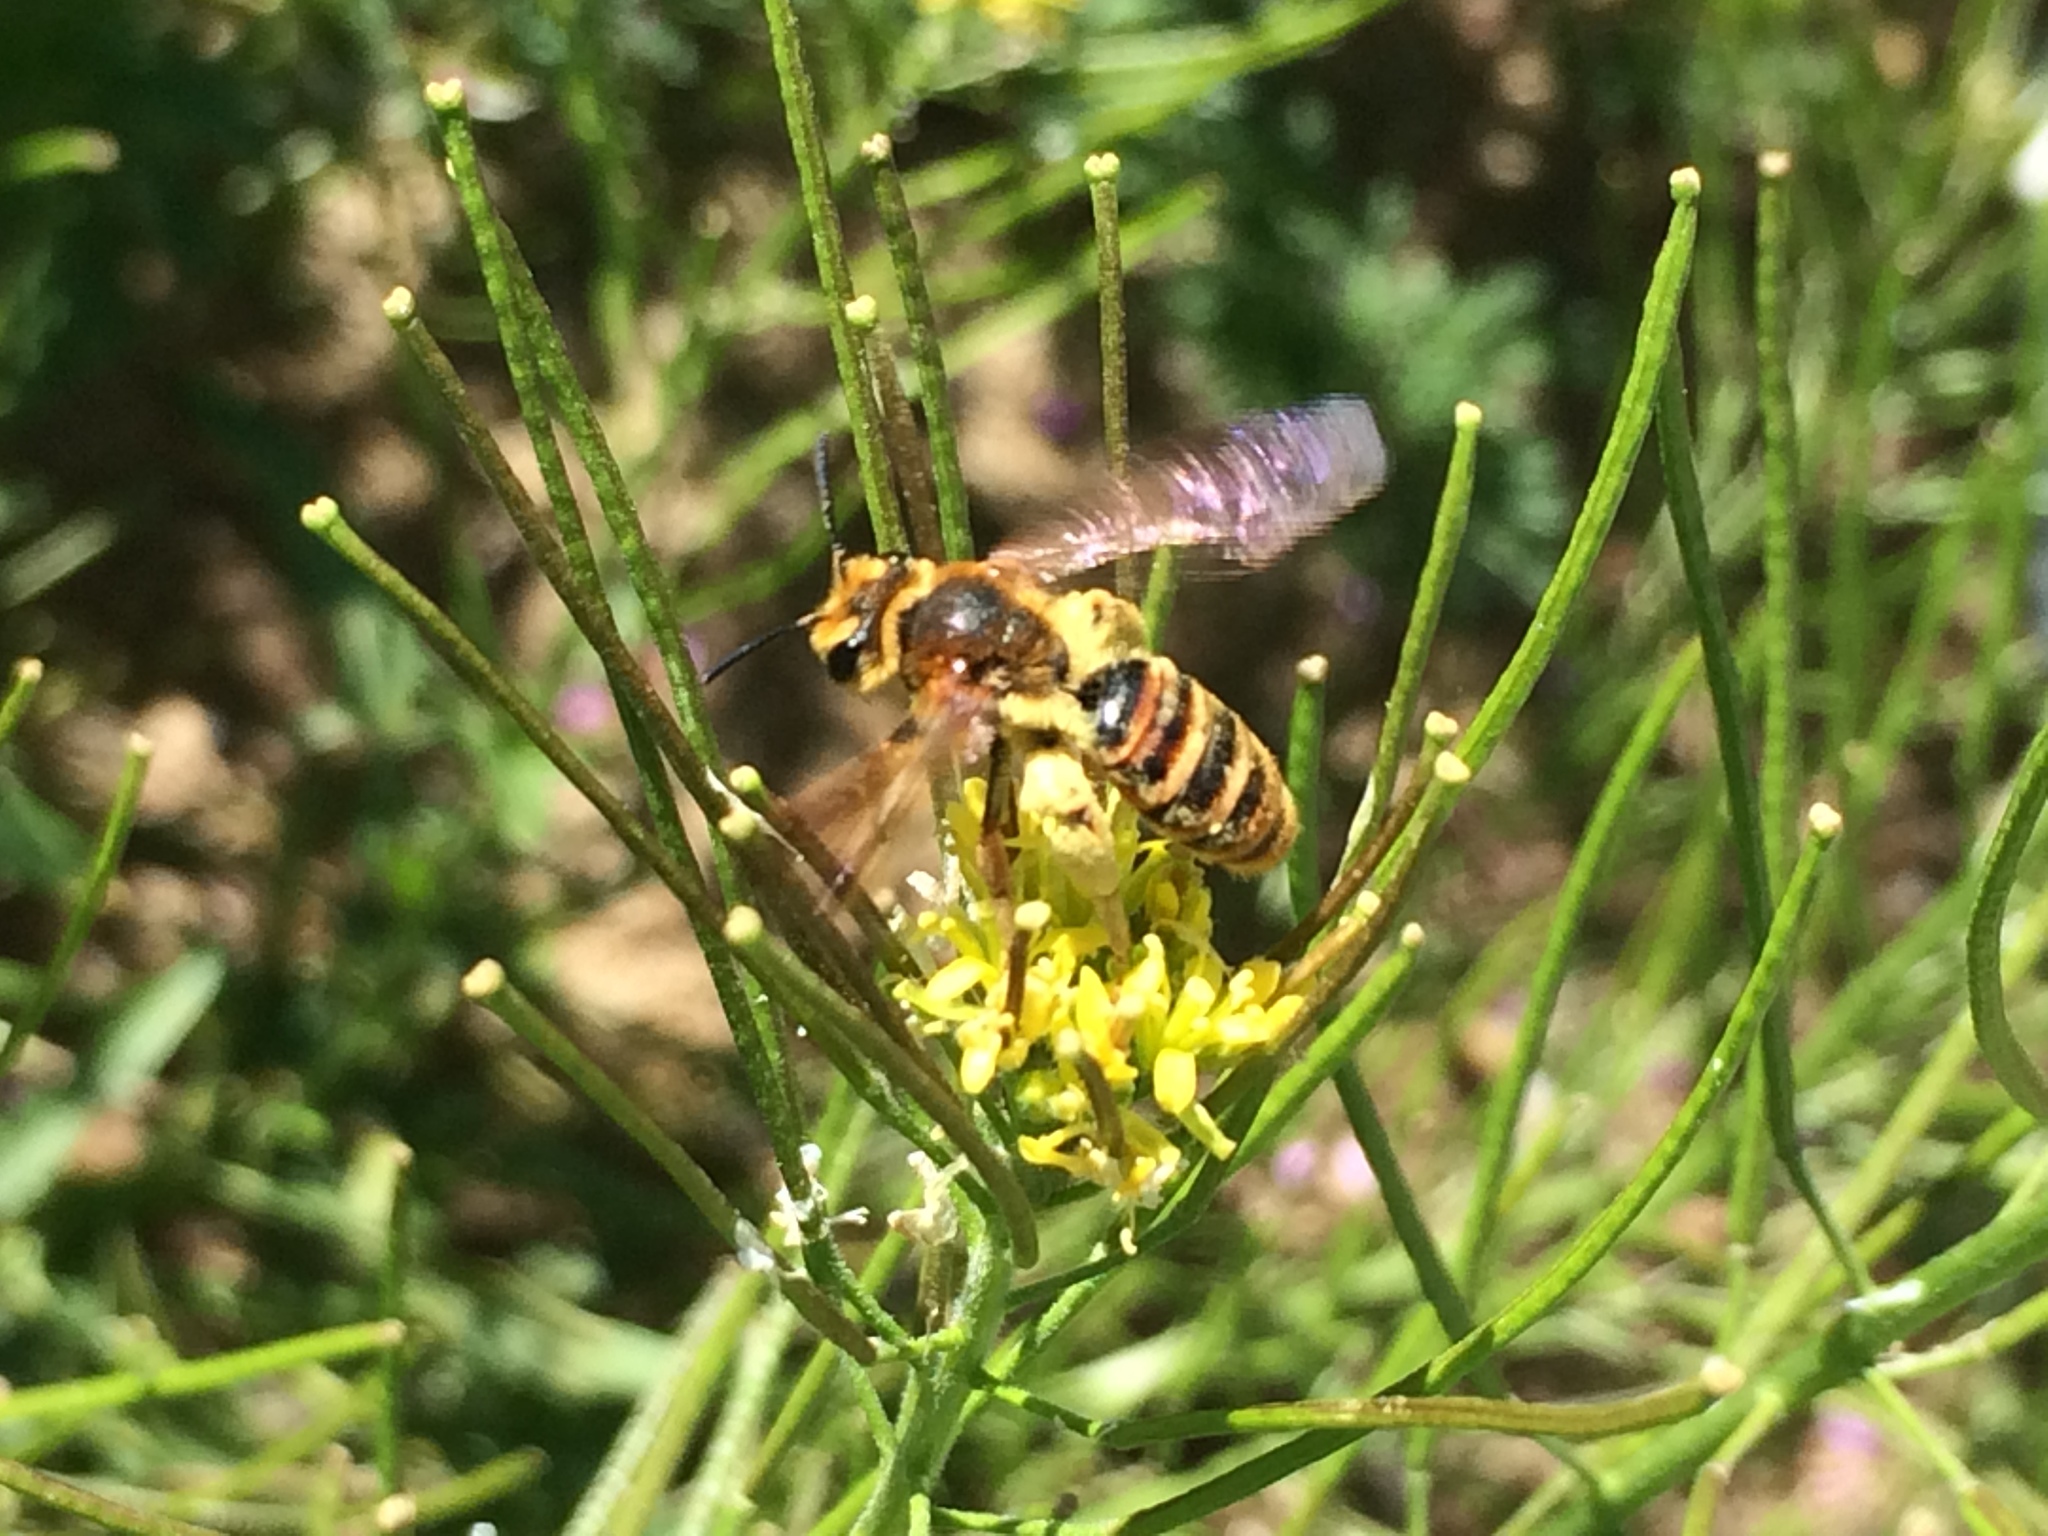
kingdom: Animalia
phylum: Arthropoda
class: Insecta
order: Hymenoptera
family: Andrenidae
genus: Andrena
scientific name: Andrena
